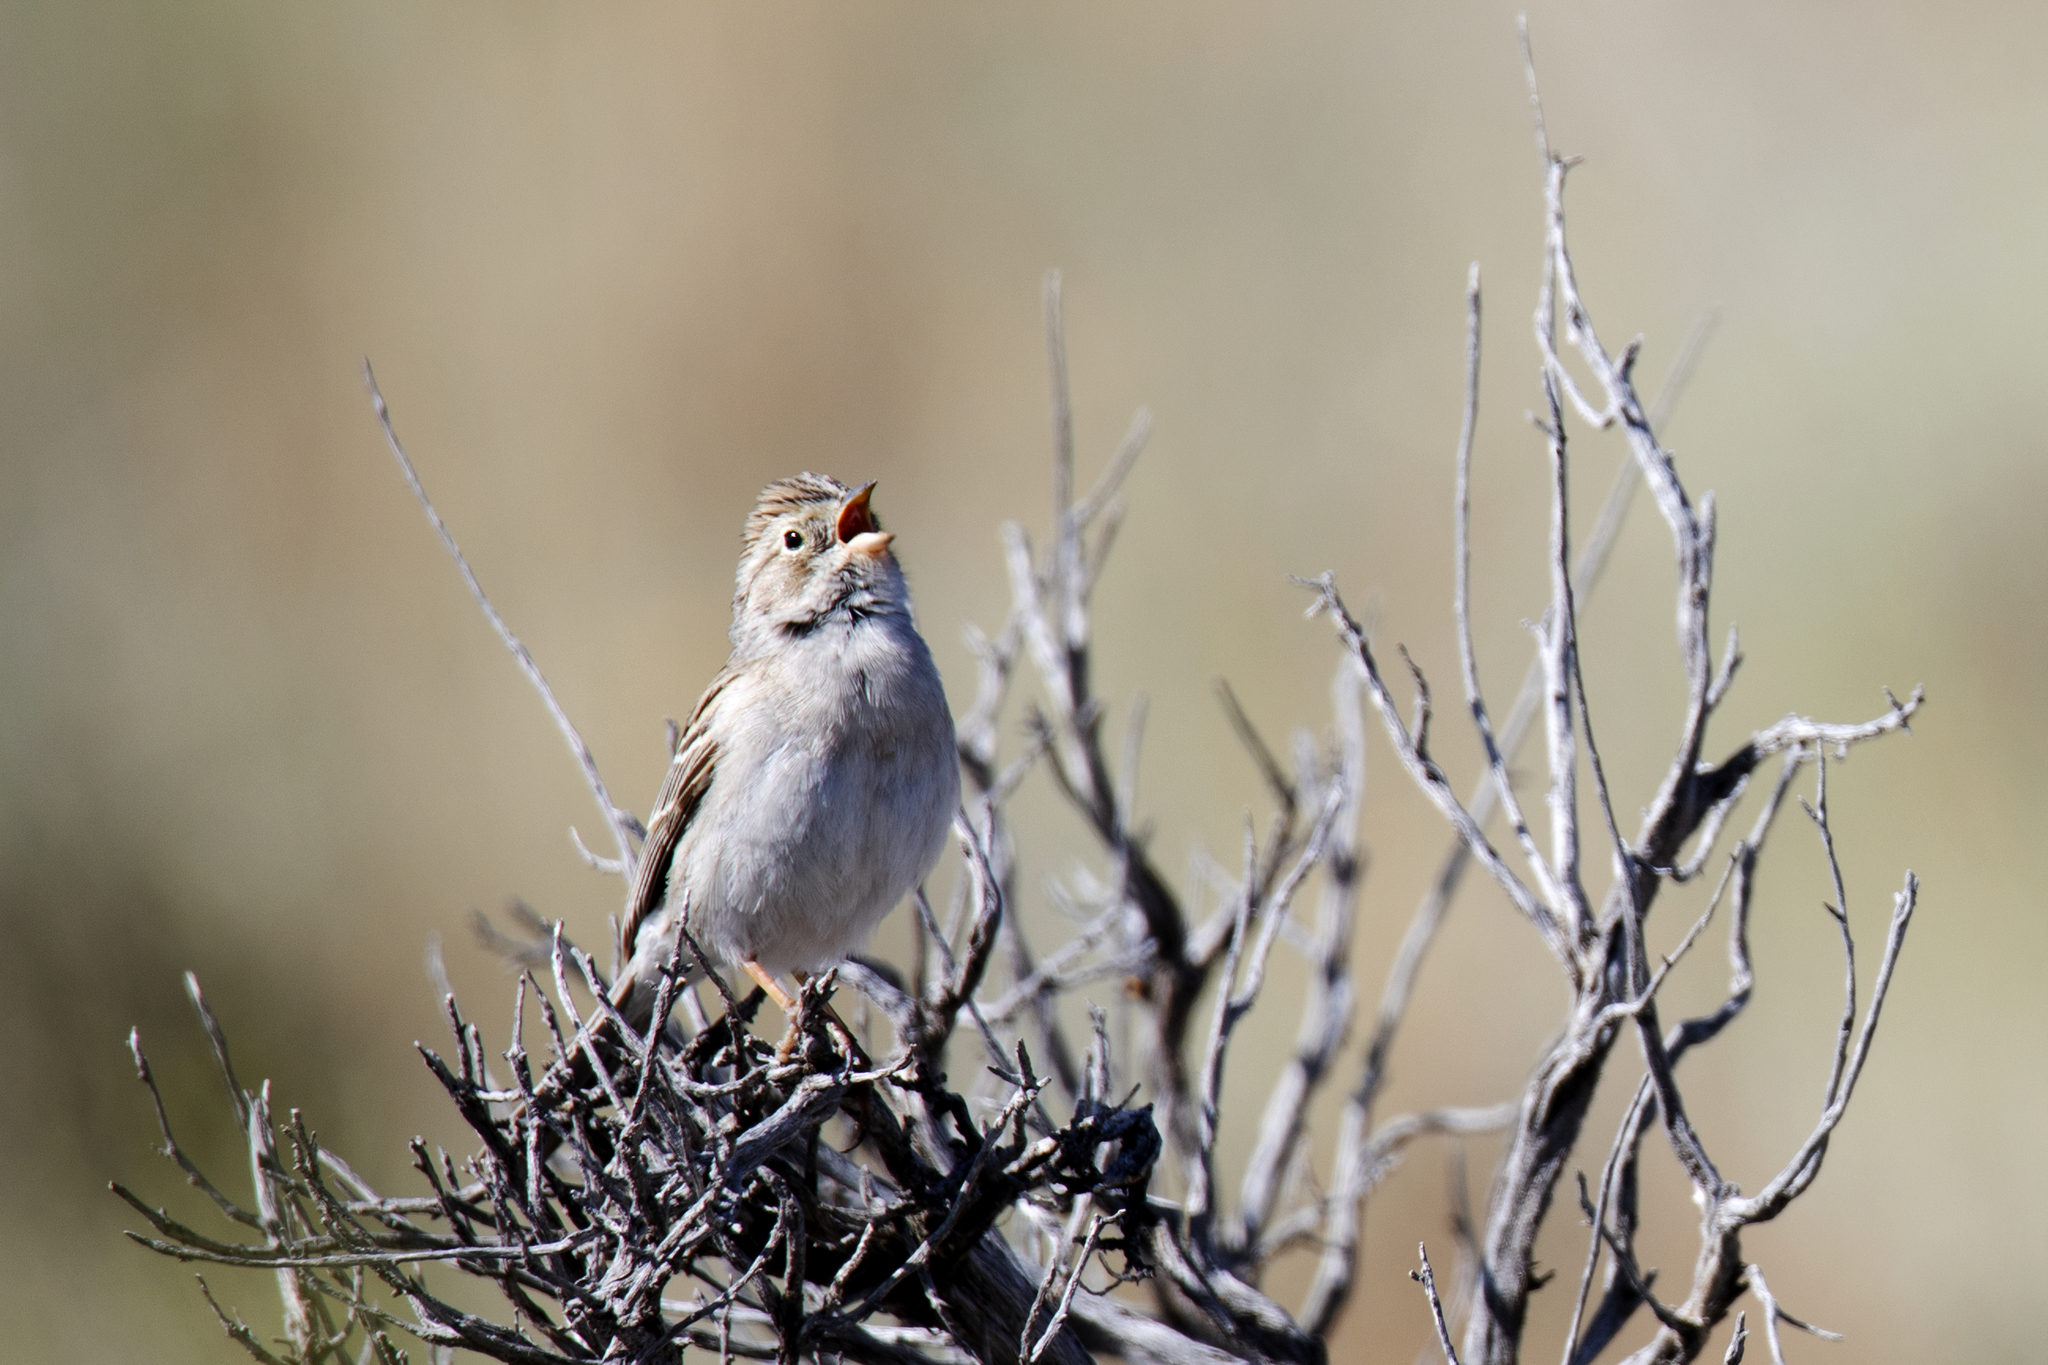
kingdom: Animalia
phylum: Chordata
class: Aves
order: Passeriformes
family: Passerellidae
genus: Spizella
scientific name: Spizella breweri
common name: Brewer's sparrow
